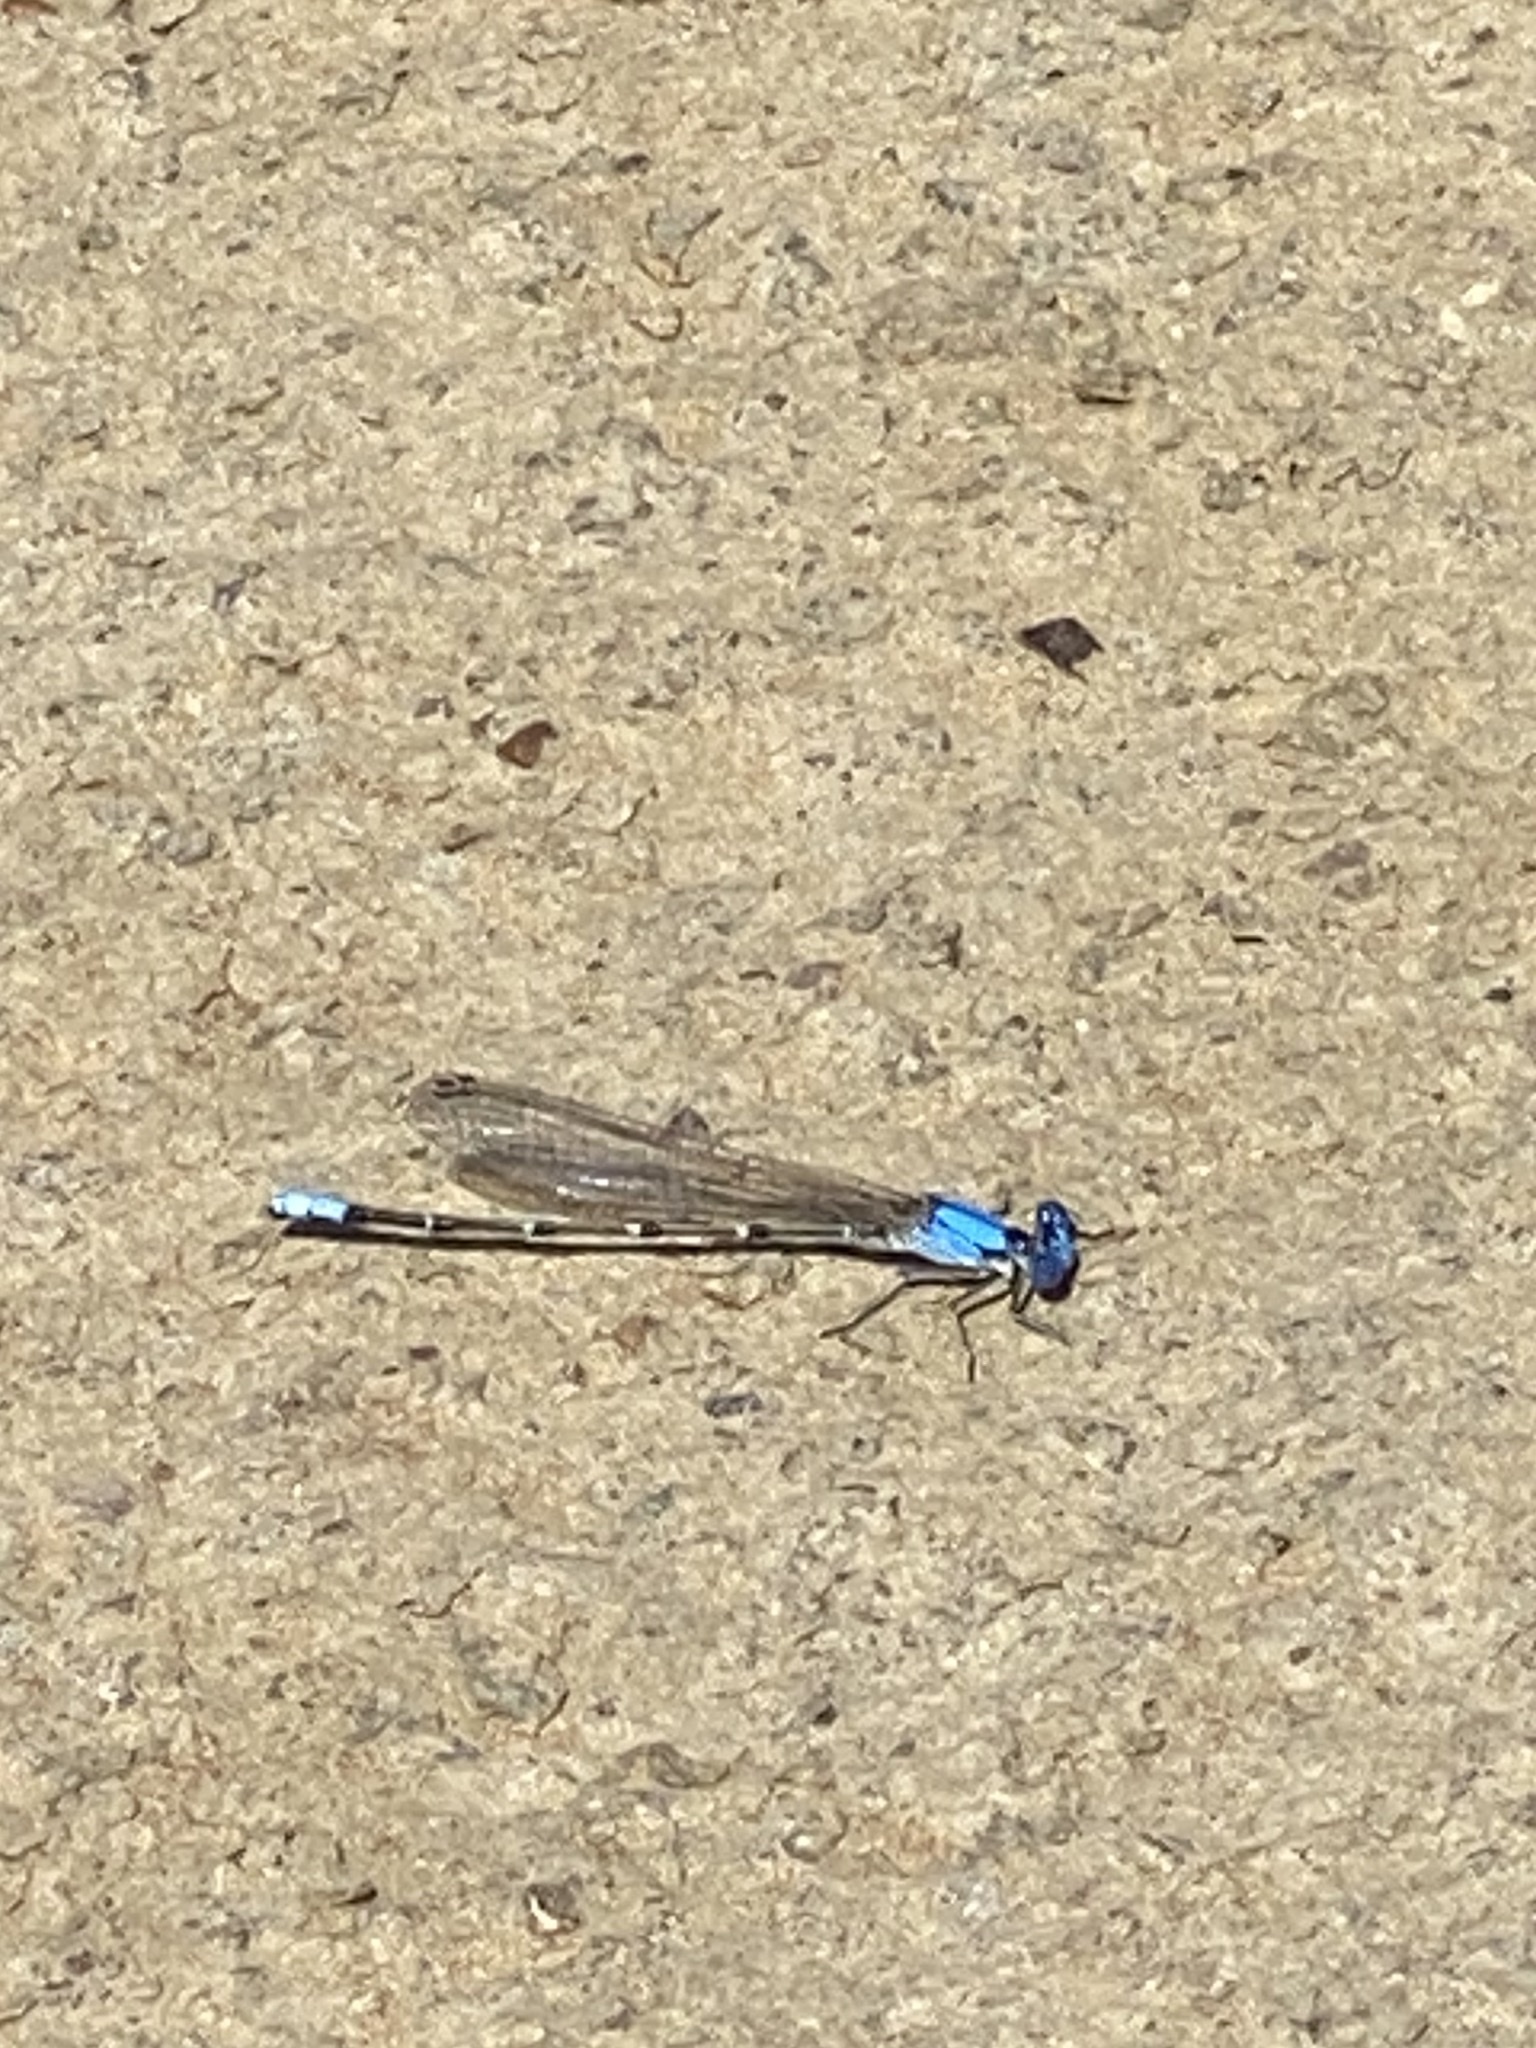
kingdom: Animalia
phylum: Arthropoda
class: Insecta
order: Odonata
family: Coenagrionidae
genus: Argia
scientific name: Argia apicalis
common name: Blue-fronted dancer
